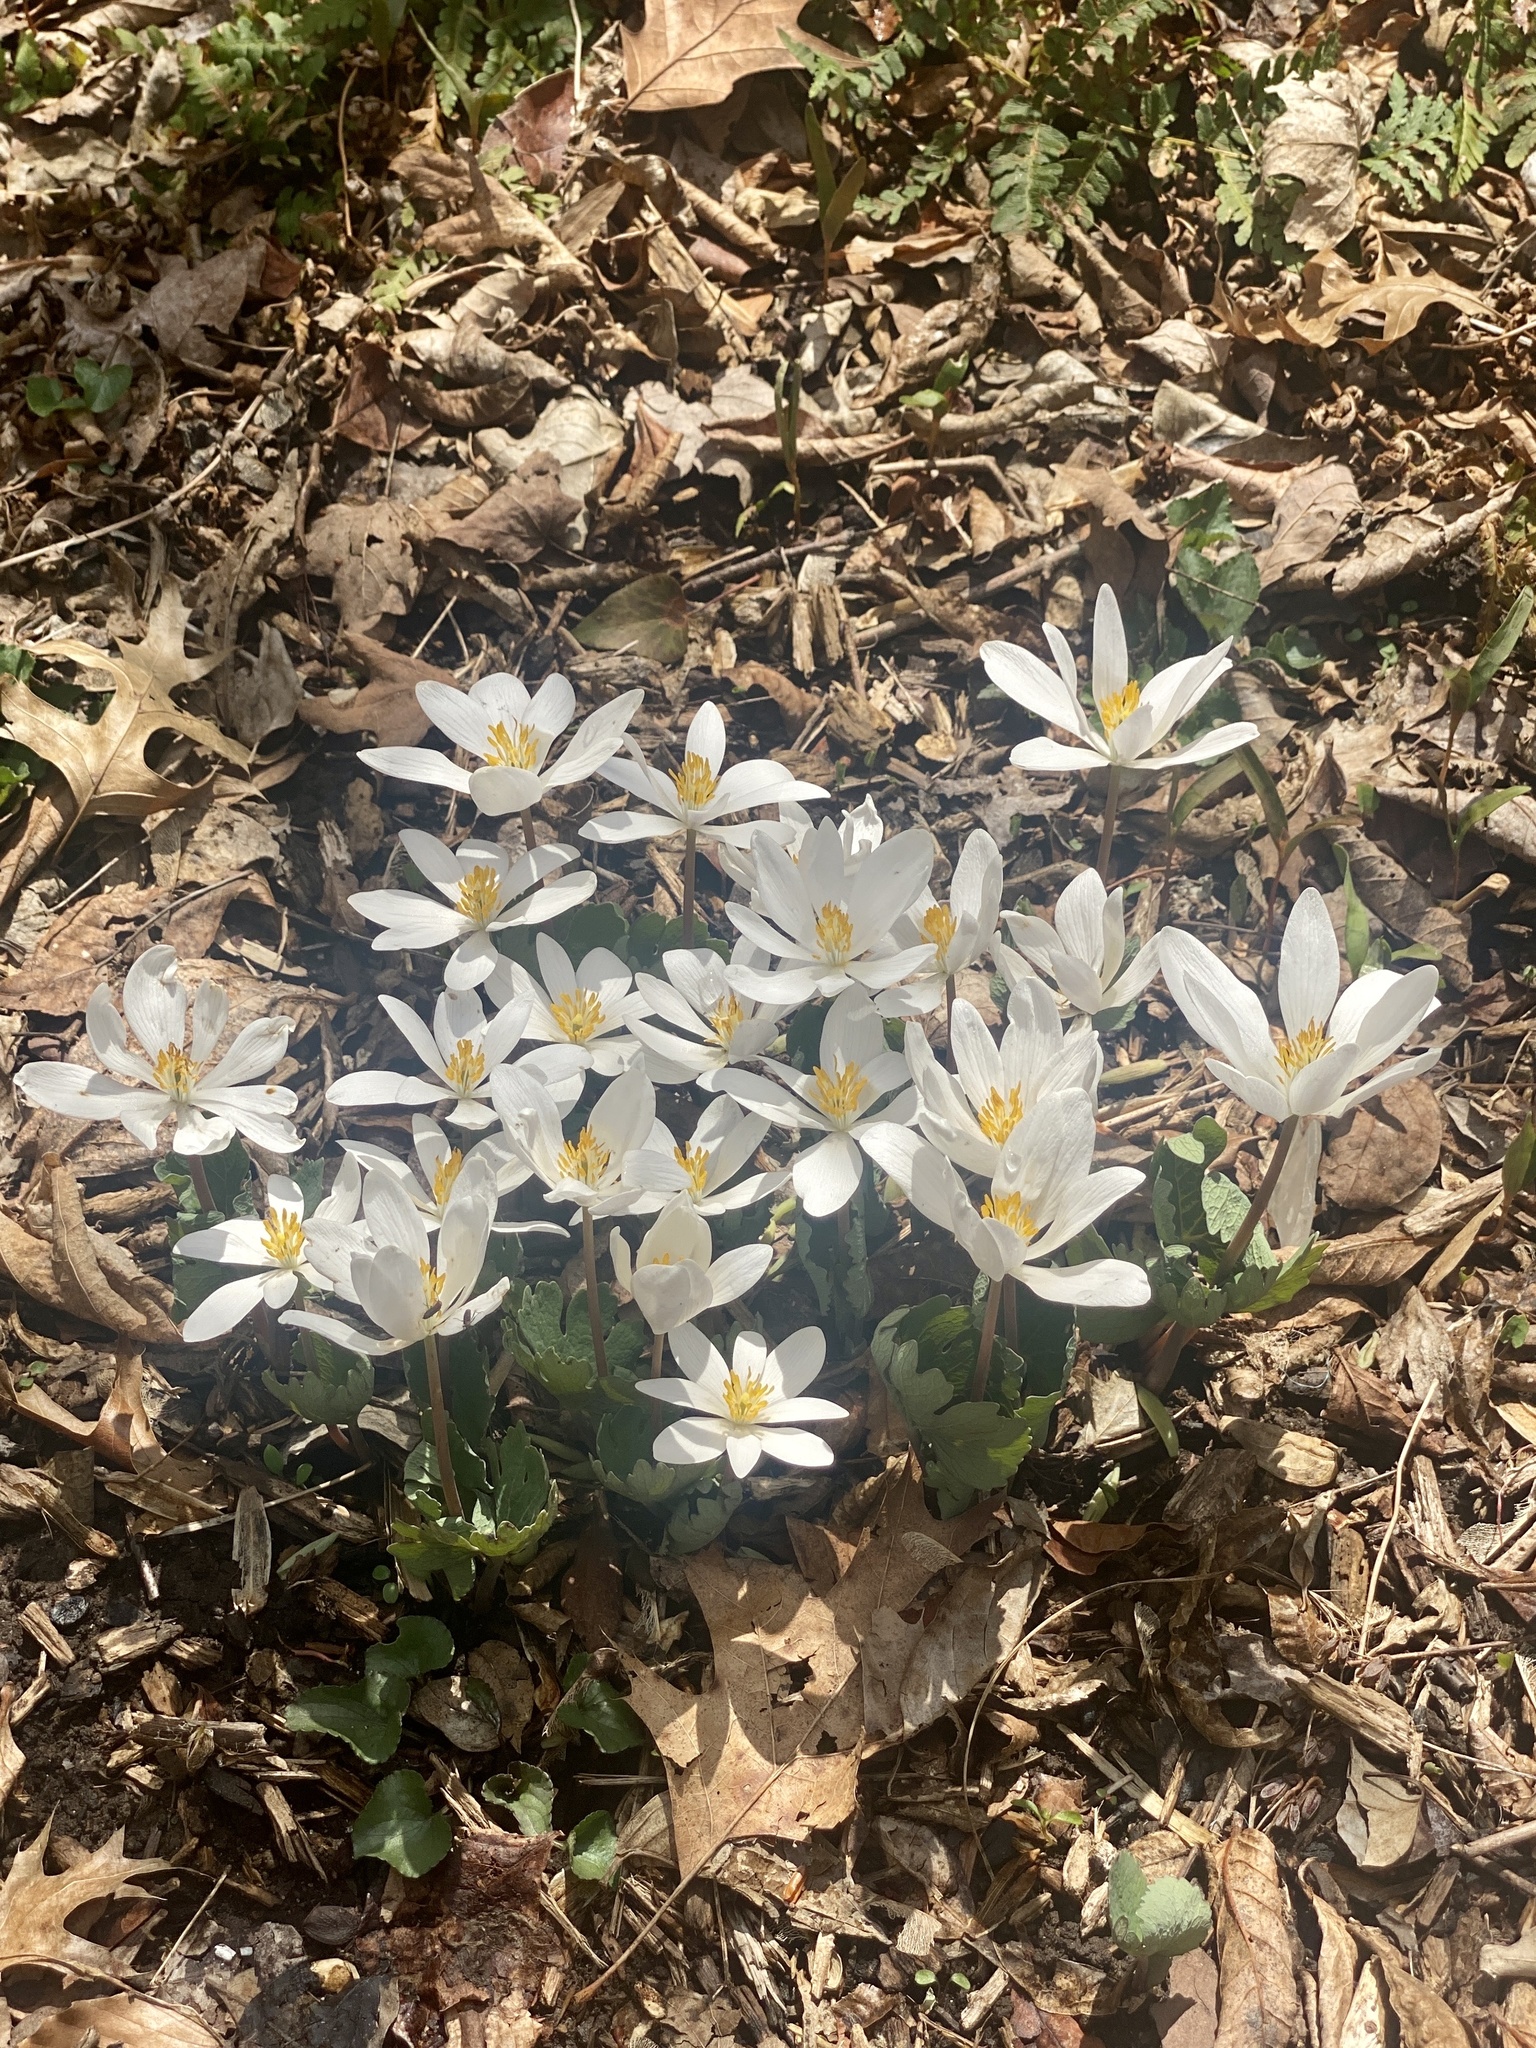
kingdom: Plantae
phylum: Tracheophyta
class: Magnoliopsida
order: Ranunculales
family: Papaveraceae
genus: Sanguinaria
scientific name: Sanguinaria canadensis
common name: Bloodroot
